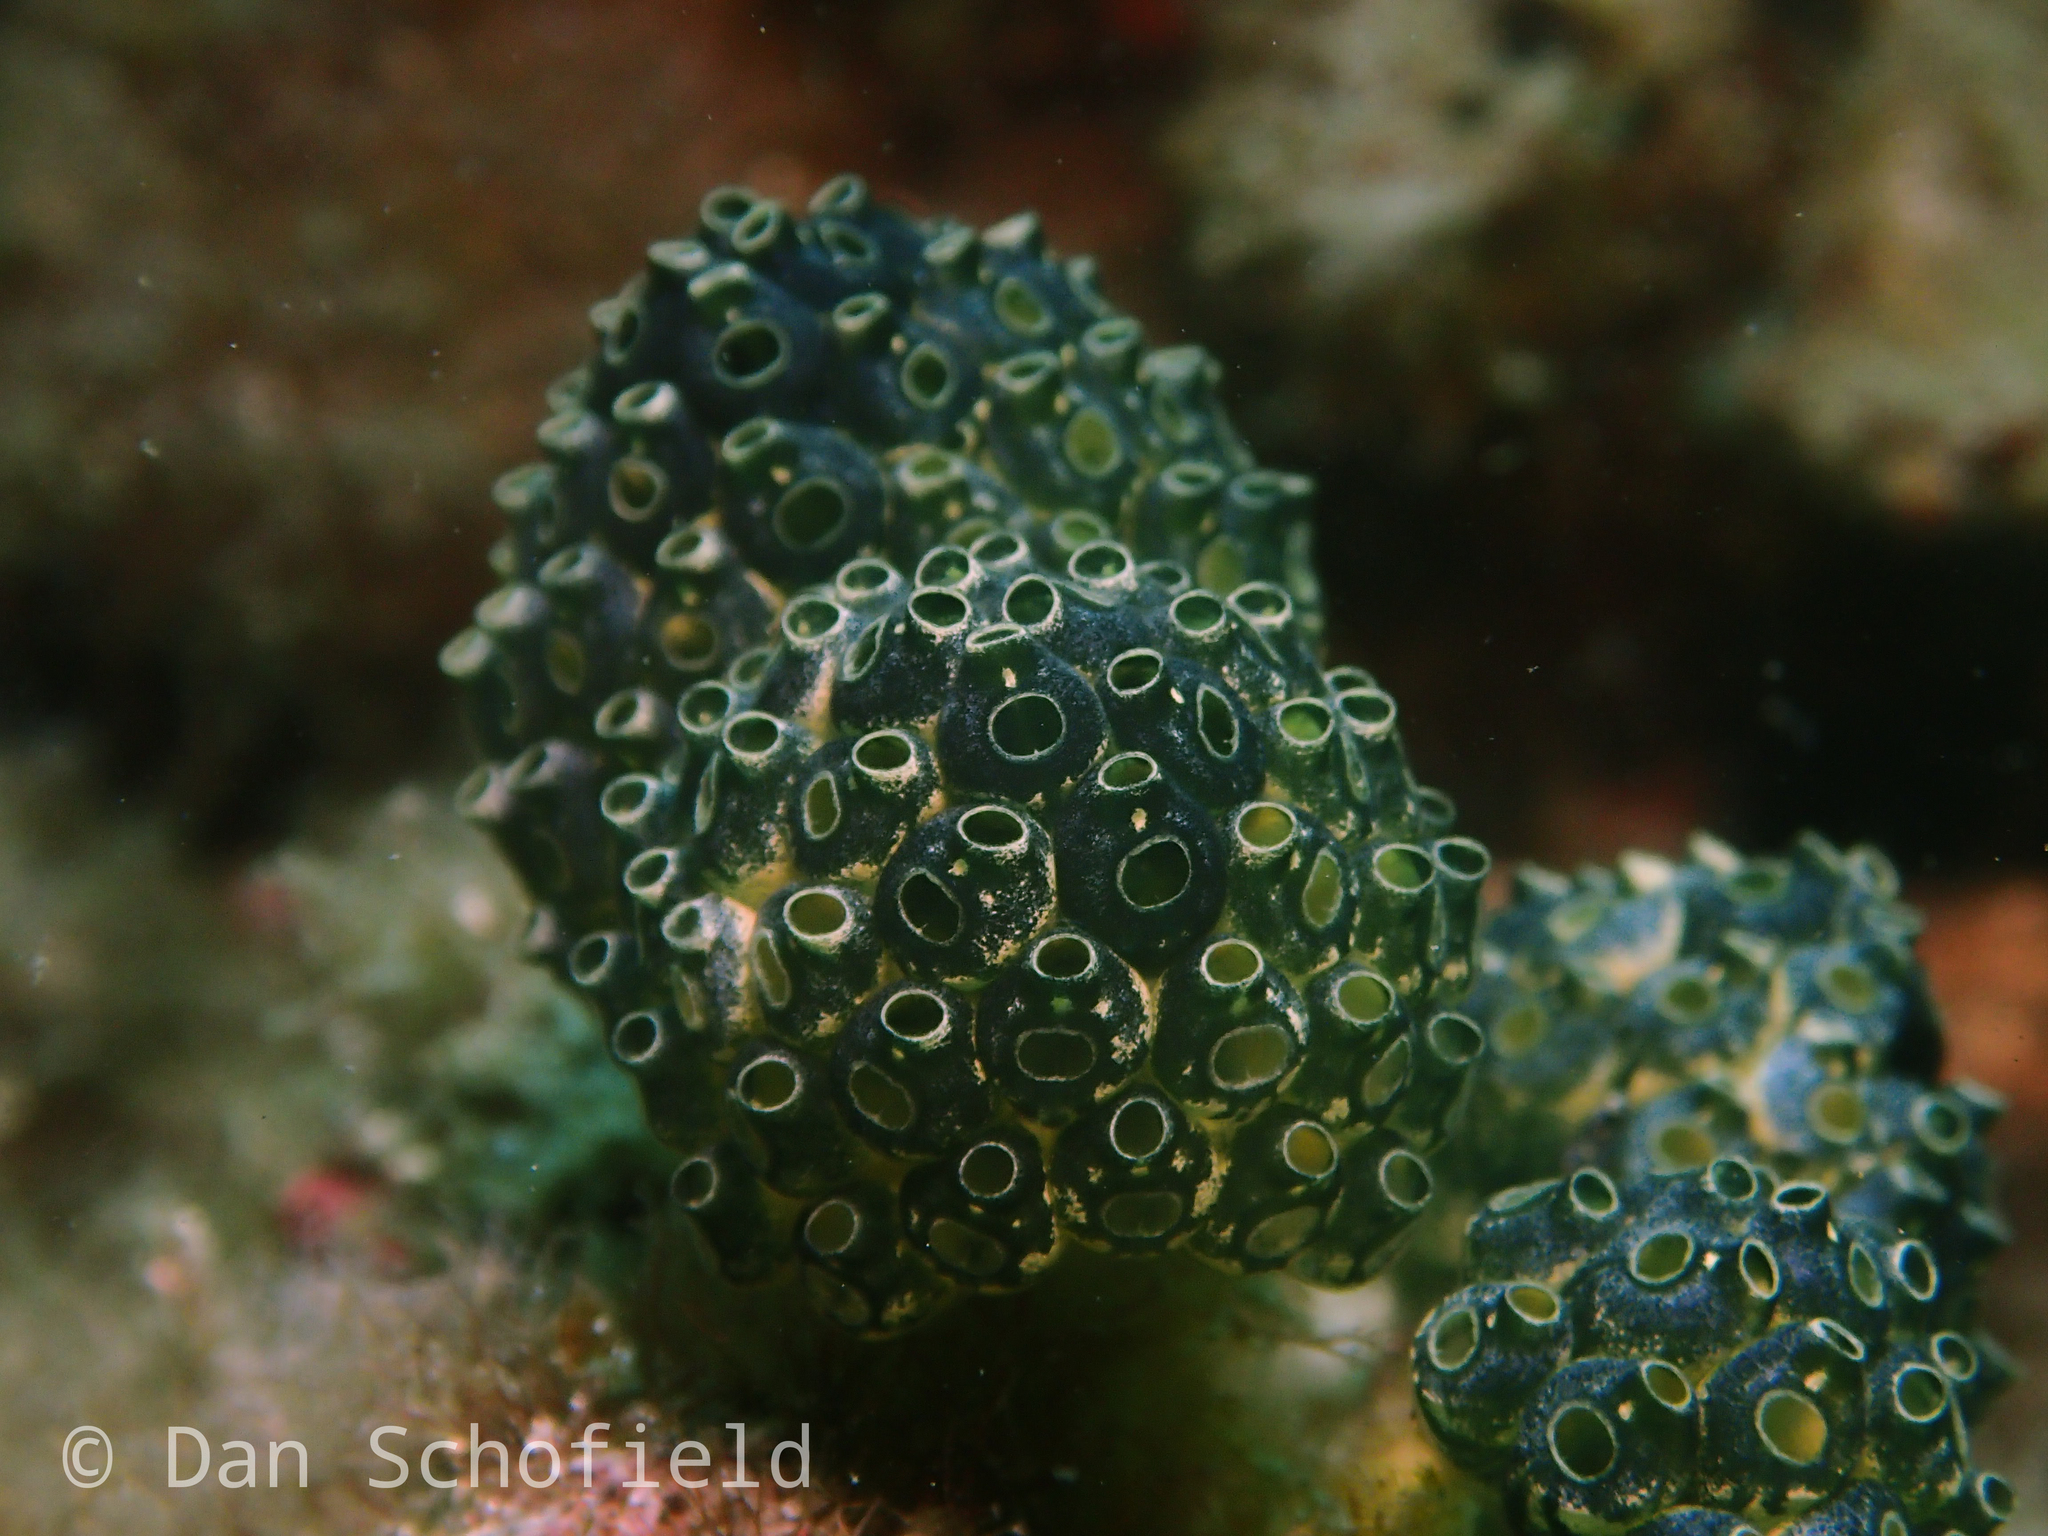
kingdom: Animalia
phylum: Chordata
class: Ascidiacea
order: Aplousobranchia
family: Clavelinidae
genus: Nephtheis
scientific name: Nephtheis fascicularis
